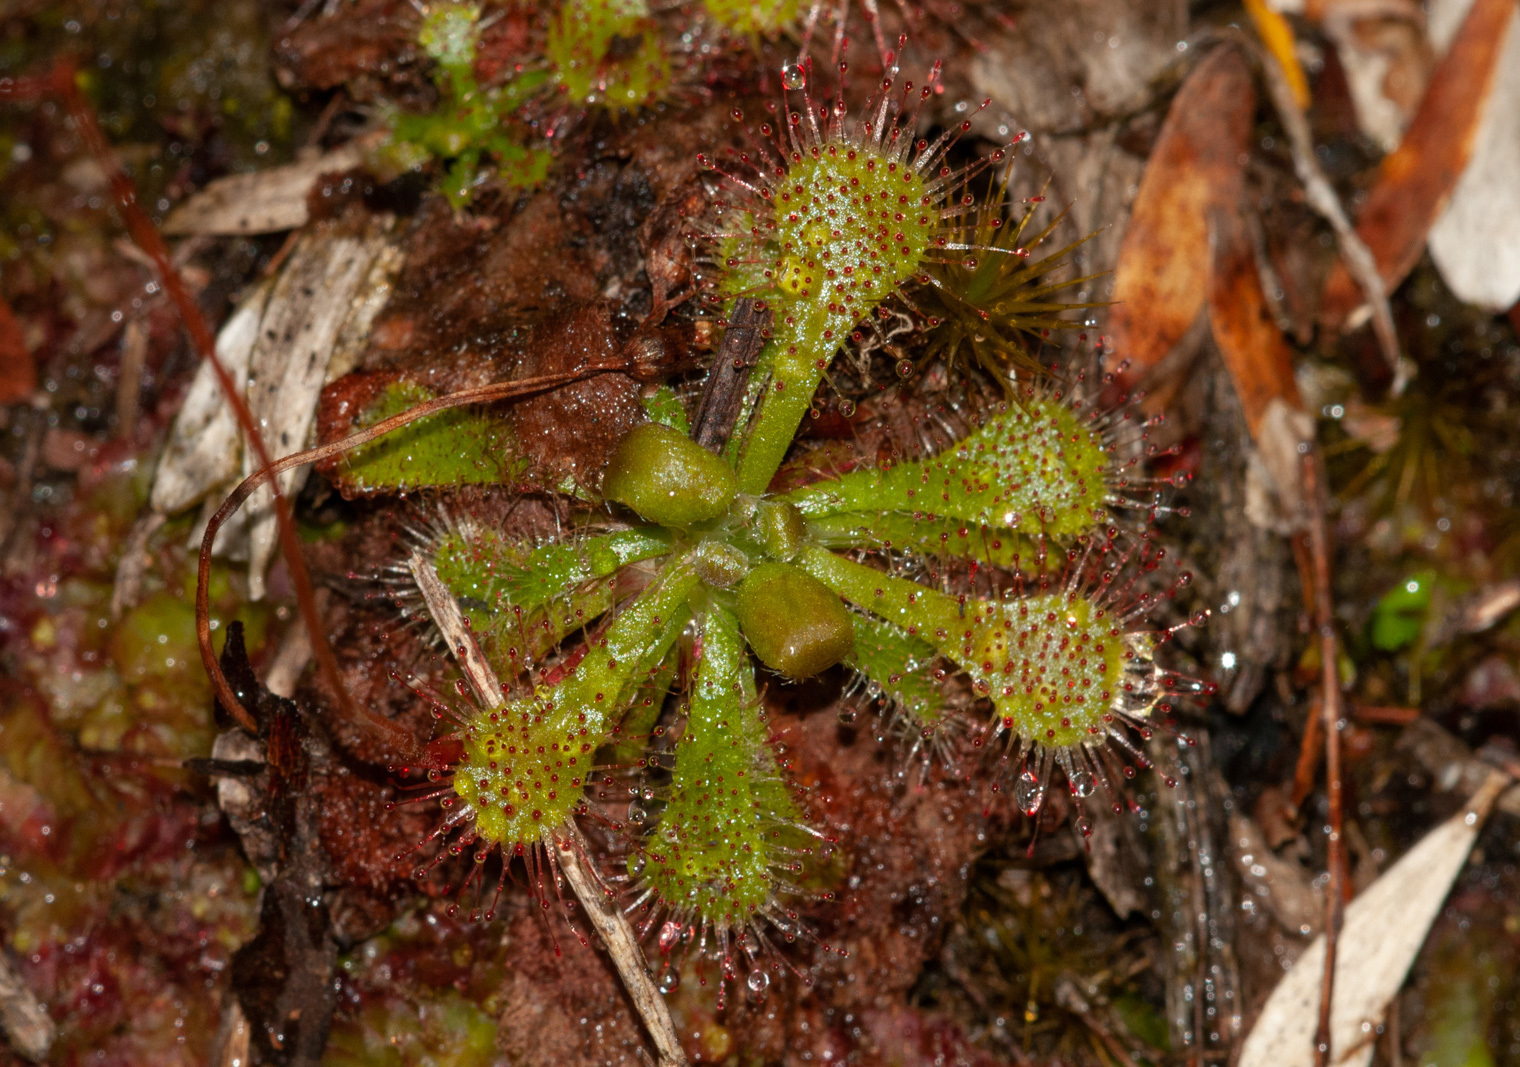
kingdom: Plantae
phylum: Tracheophyta
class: Magnoliopsida
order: Caryophyllales
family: Droseraceae
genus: Drosera
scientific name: Drosera spatulata
